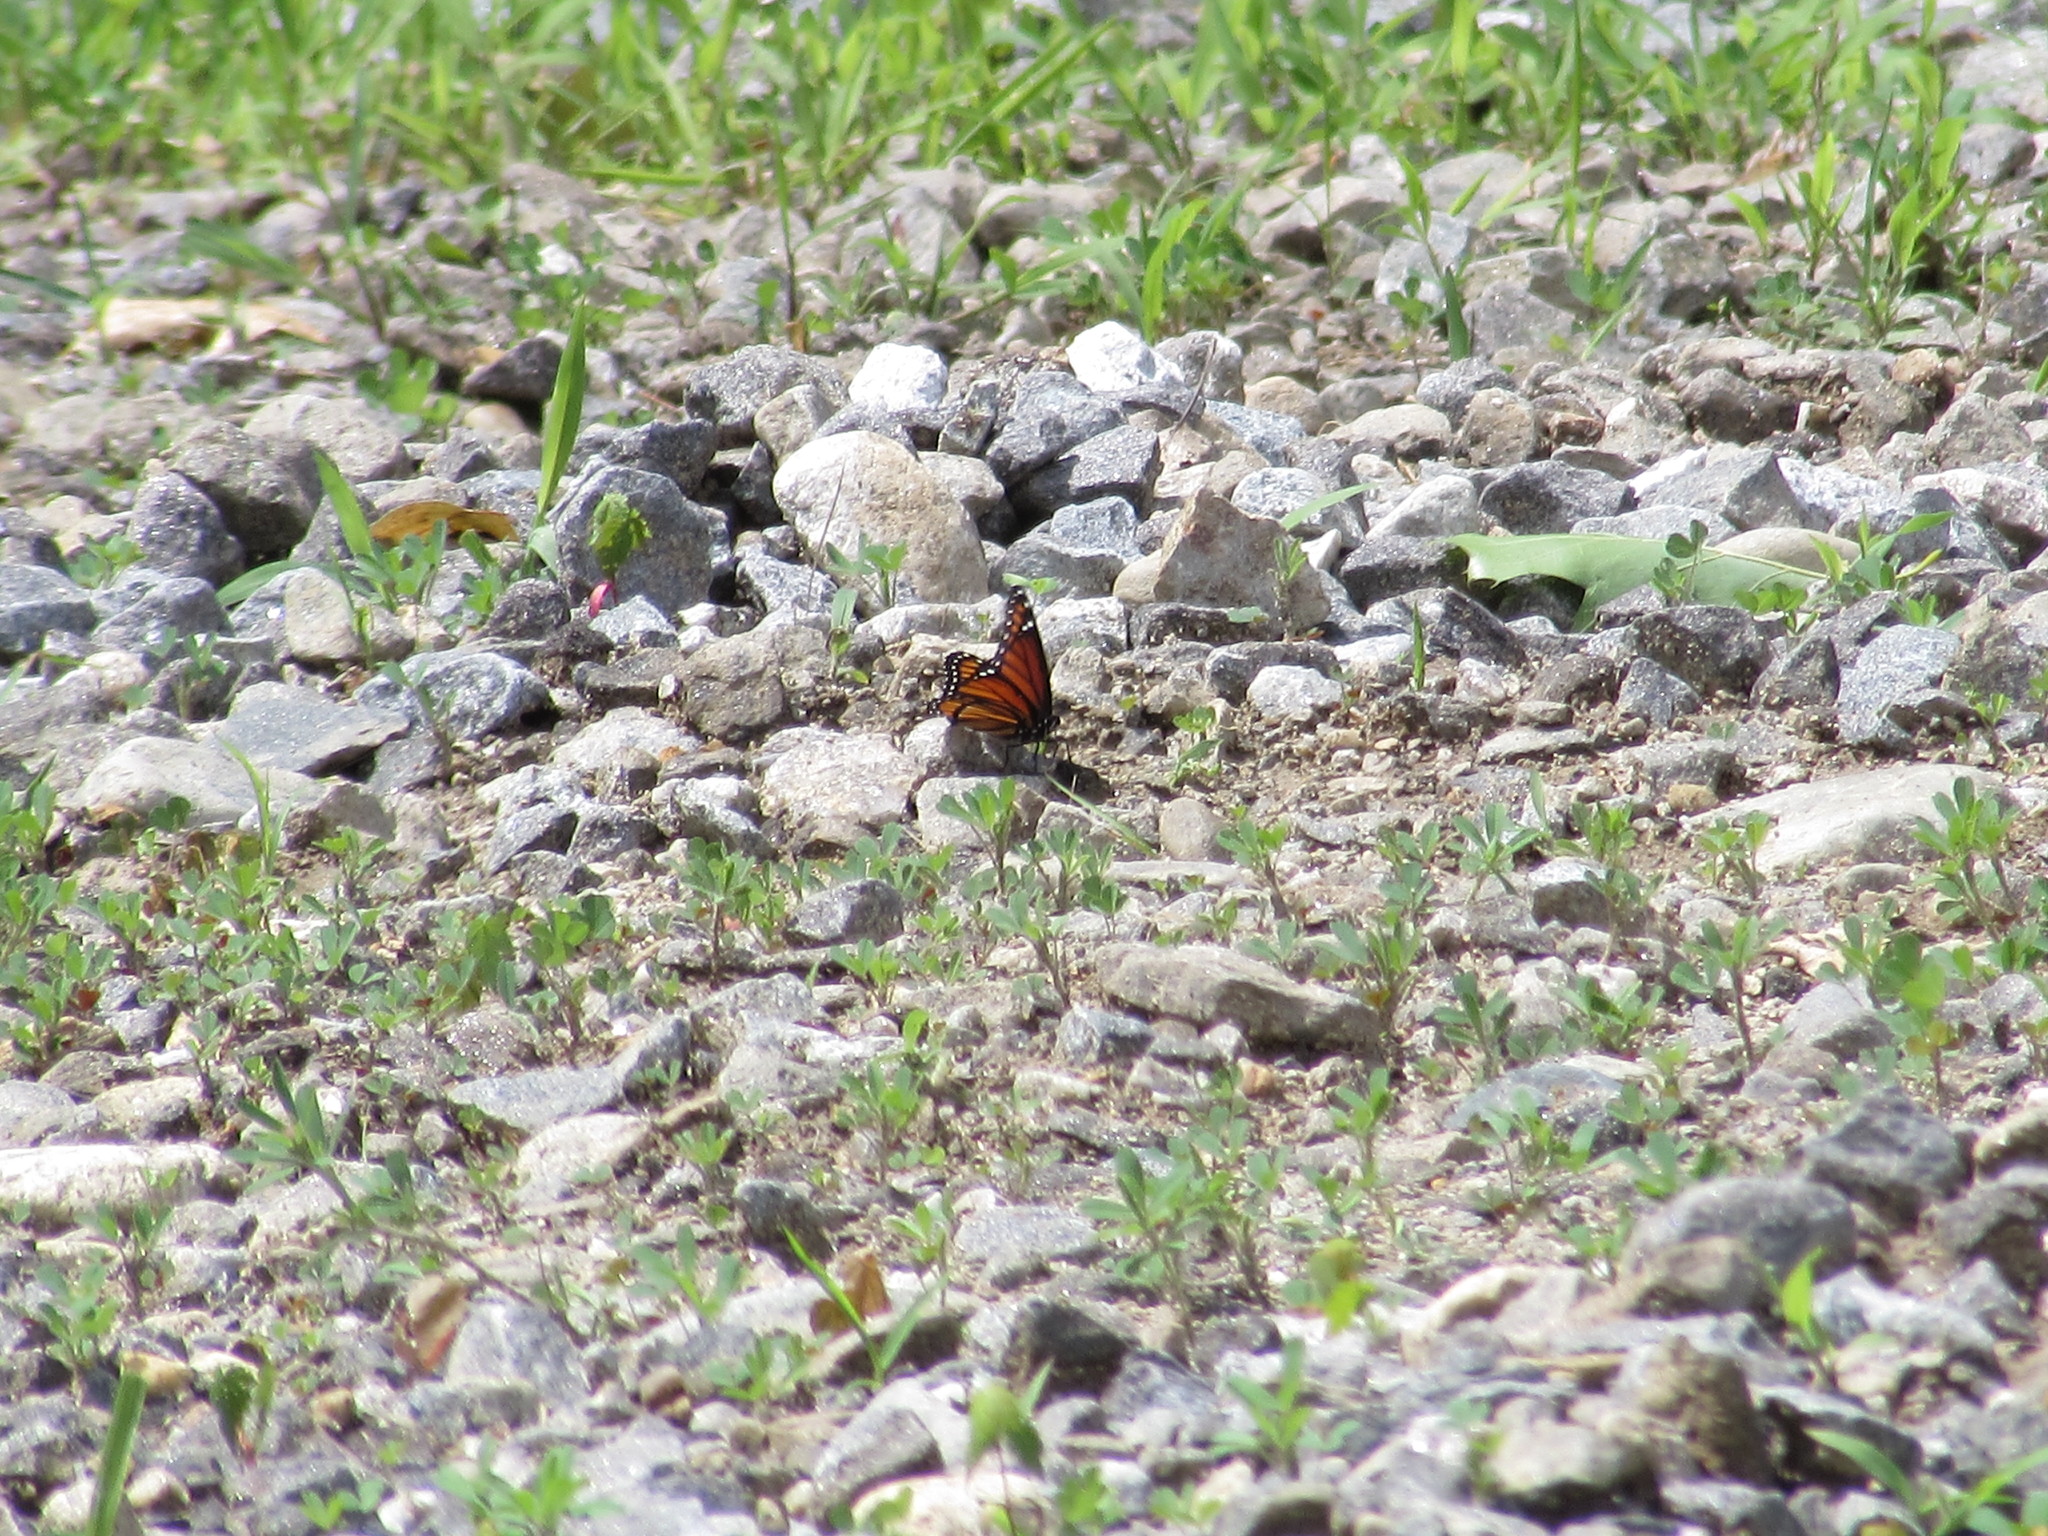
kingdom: Animalia
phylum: Arthropoda
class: Insecta
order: Lepidoptera
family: Nymphalidae
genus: Limenitis
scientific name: Limenitis archippus
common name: Viceroy
